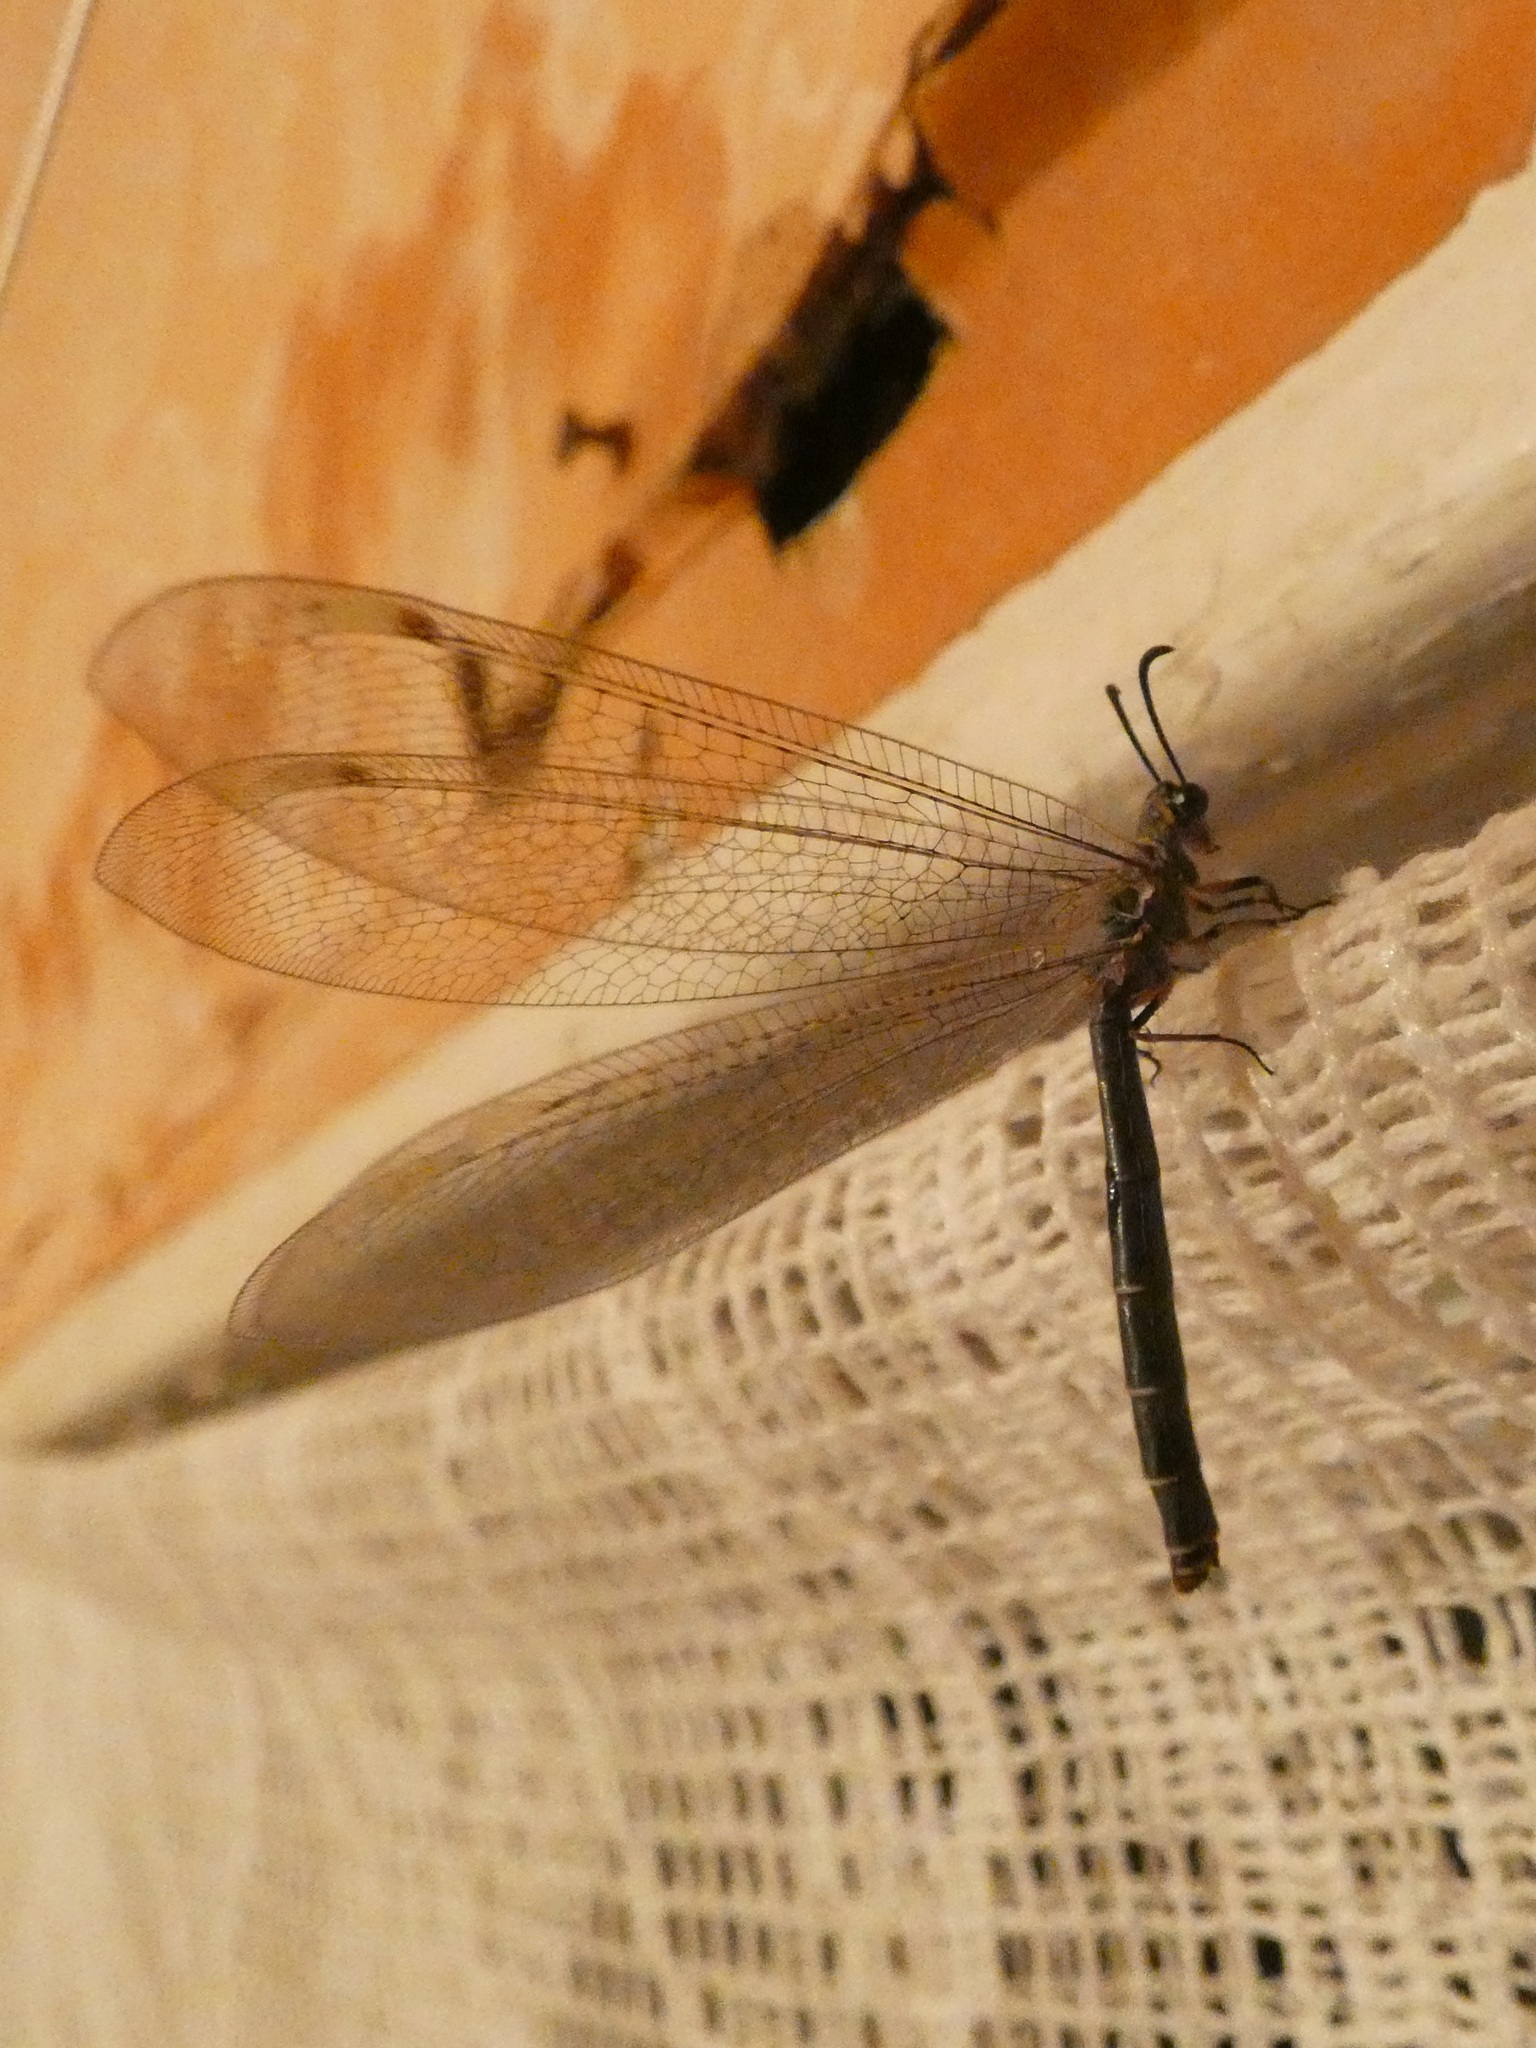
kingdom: Animalia
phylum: Arthropoda
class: Insecta
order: Neuroptera
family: Myrmeleontidae
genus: Myrmeleon
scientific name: Myrmeleon formicarius
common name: Ant-lion
